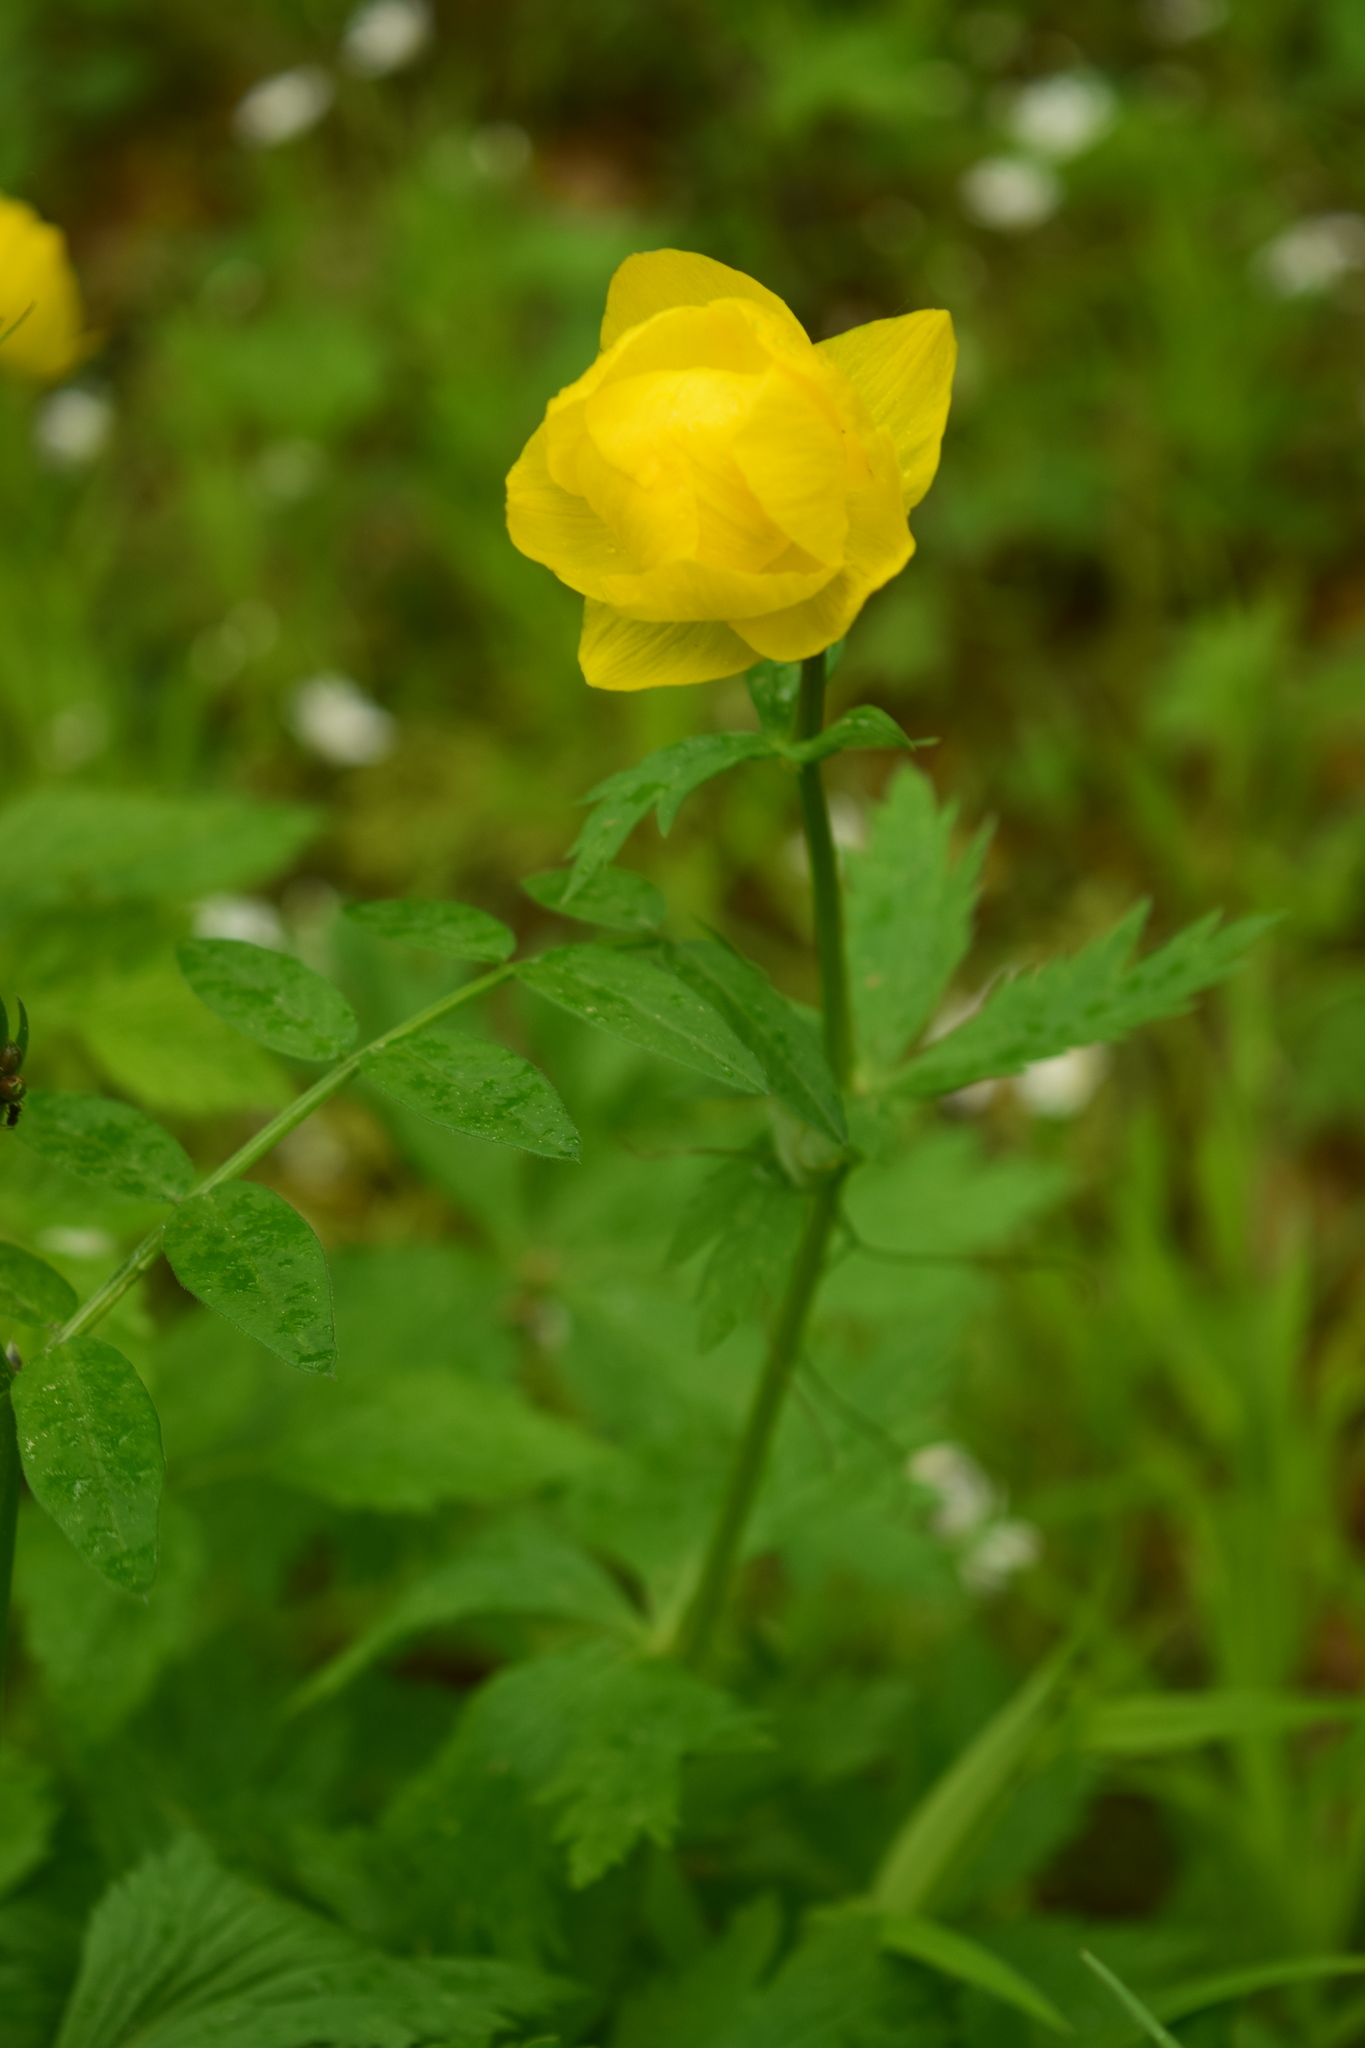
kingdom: Plantae
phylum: Tracheophyta
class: Magnoliopsida
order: Ranunculales
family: Ranunculaceae
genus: Trollius
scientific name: Trollius europaeus
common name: European globeflower
